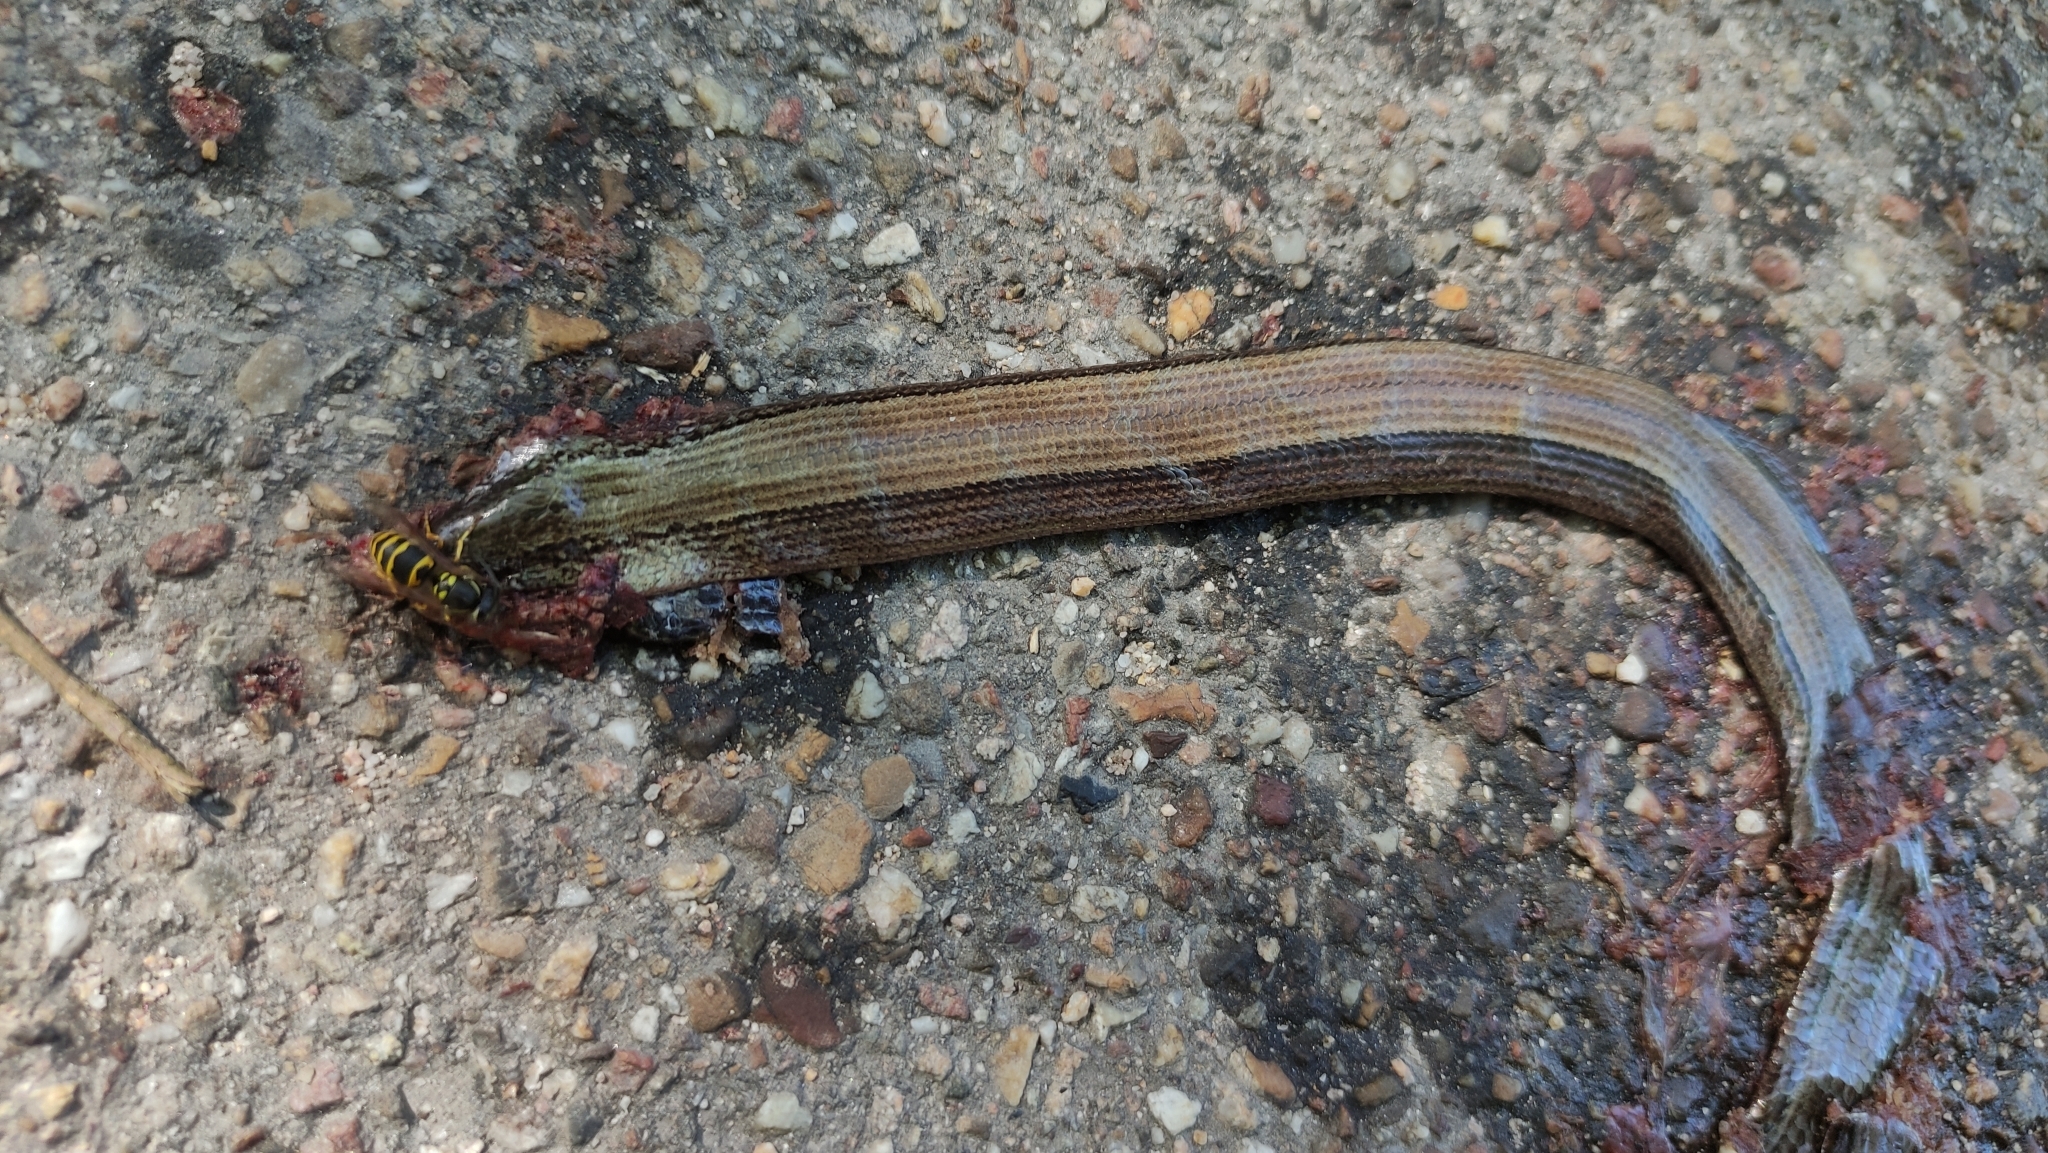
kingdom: Animalia
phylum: Chordata
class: Squamata
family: Anguidae
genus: Anguis
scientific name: Anguis fragilis
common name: Slow worm
